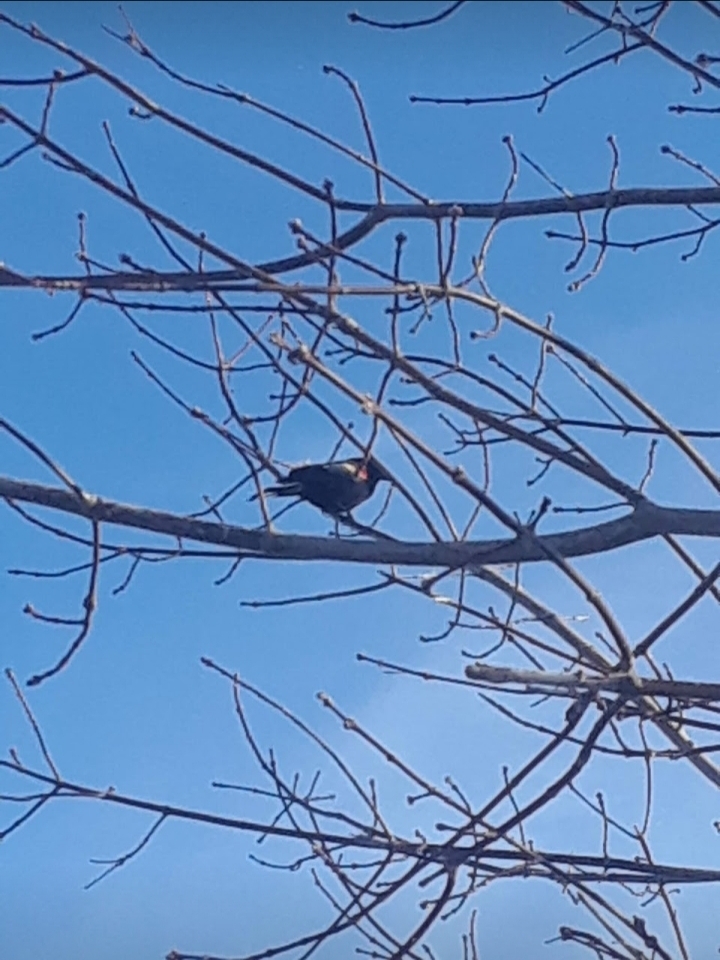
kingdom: Animalia
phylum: Chordata
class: Aves
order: Passeriformes
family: Icteridae
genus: Agelaius
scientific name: Agelaius phoeniceus
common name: Red-winged blackbird
